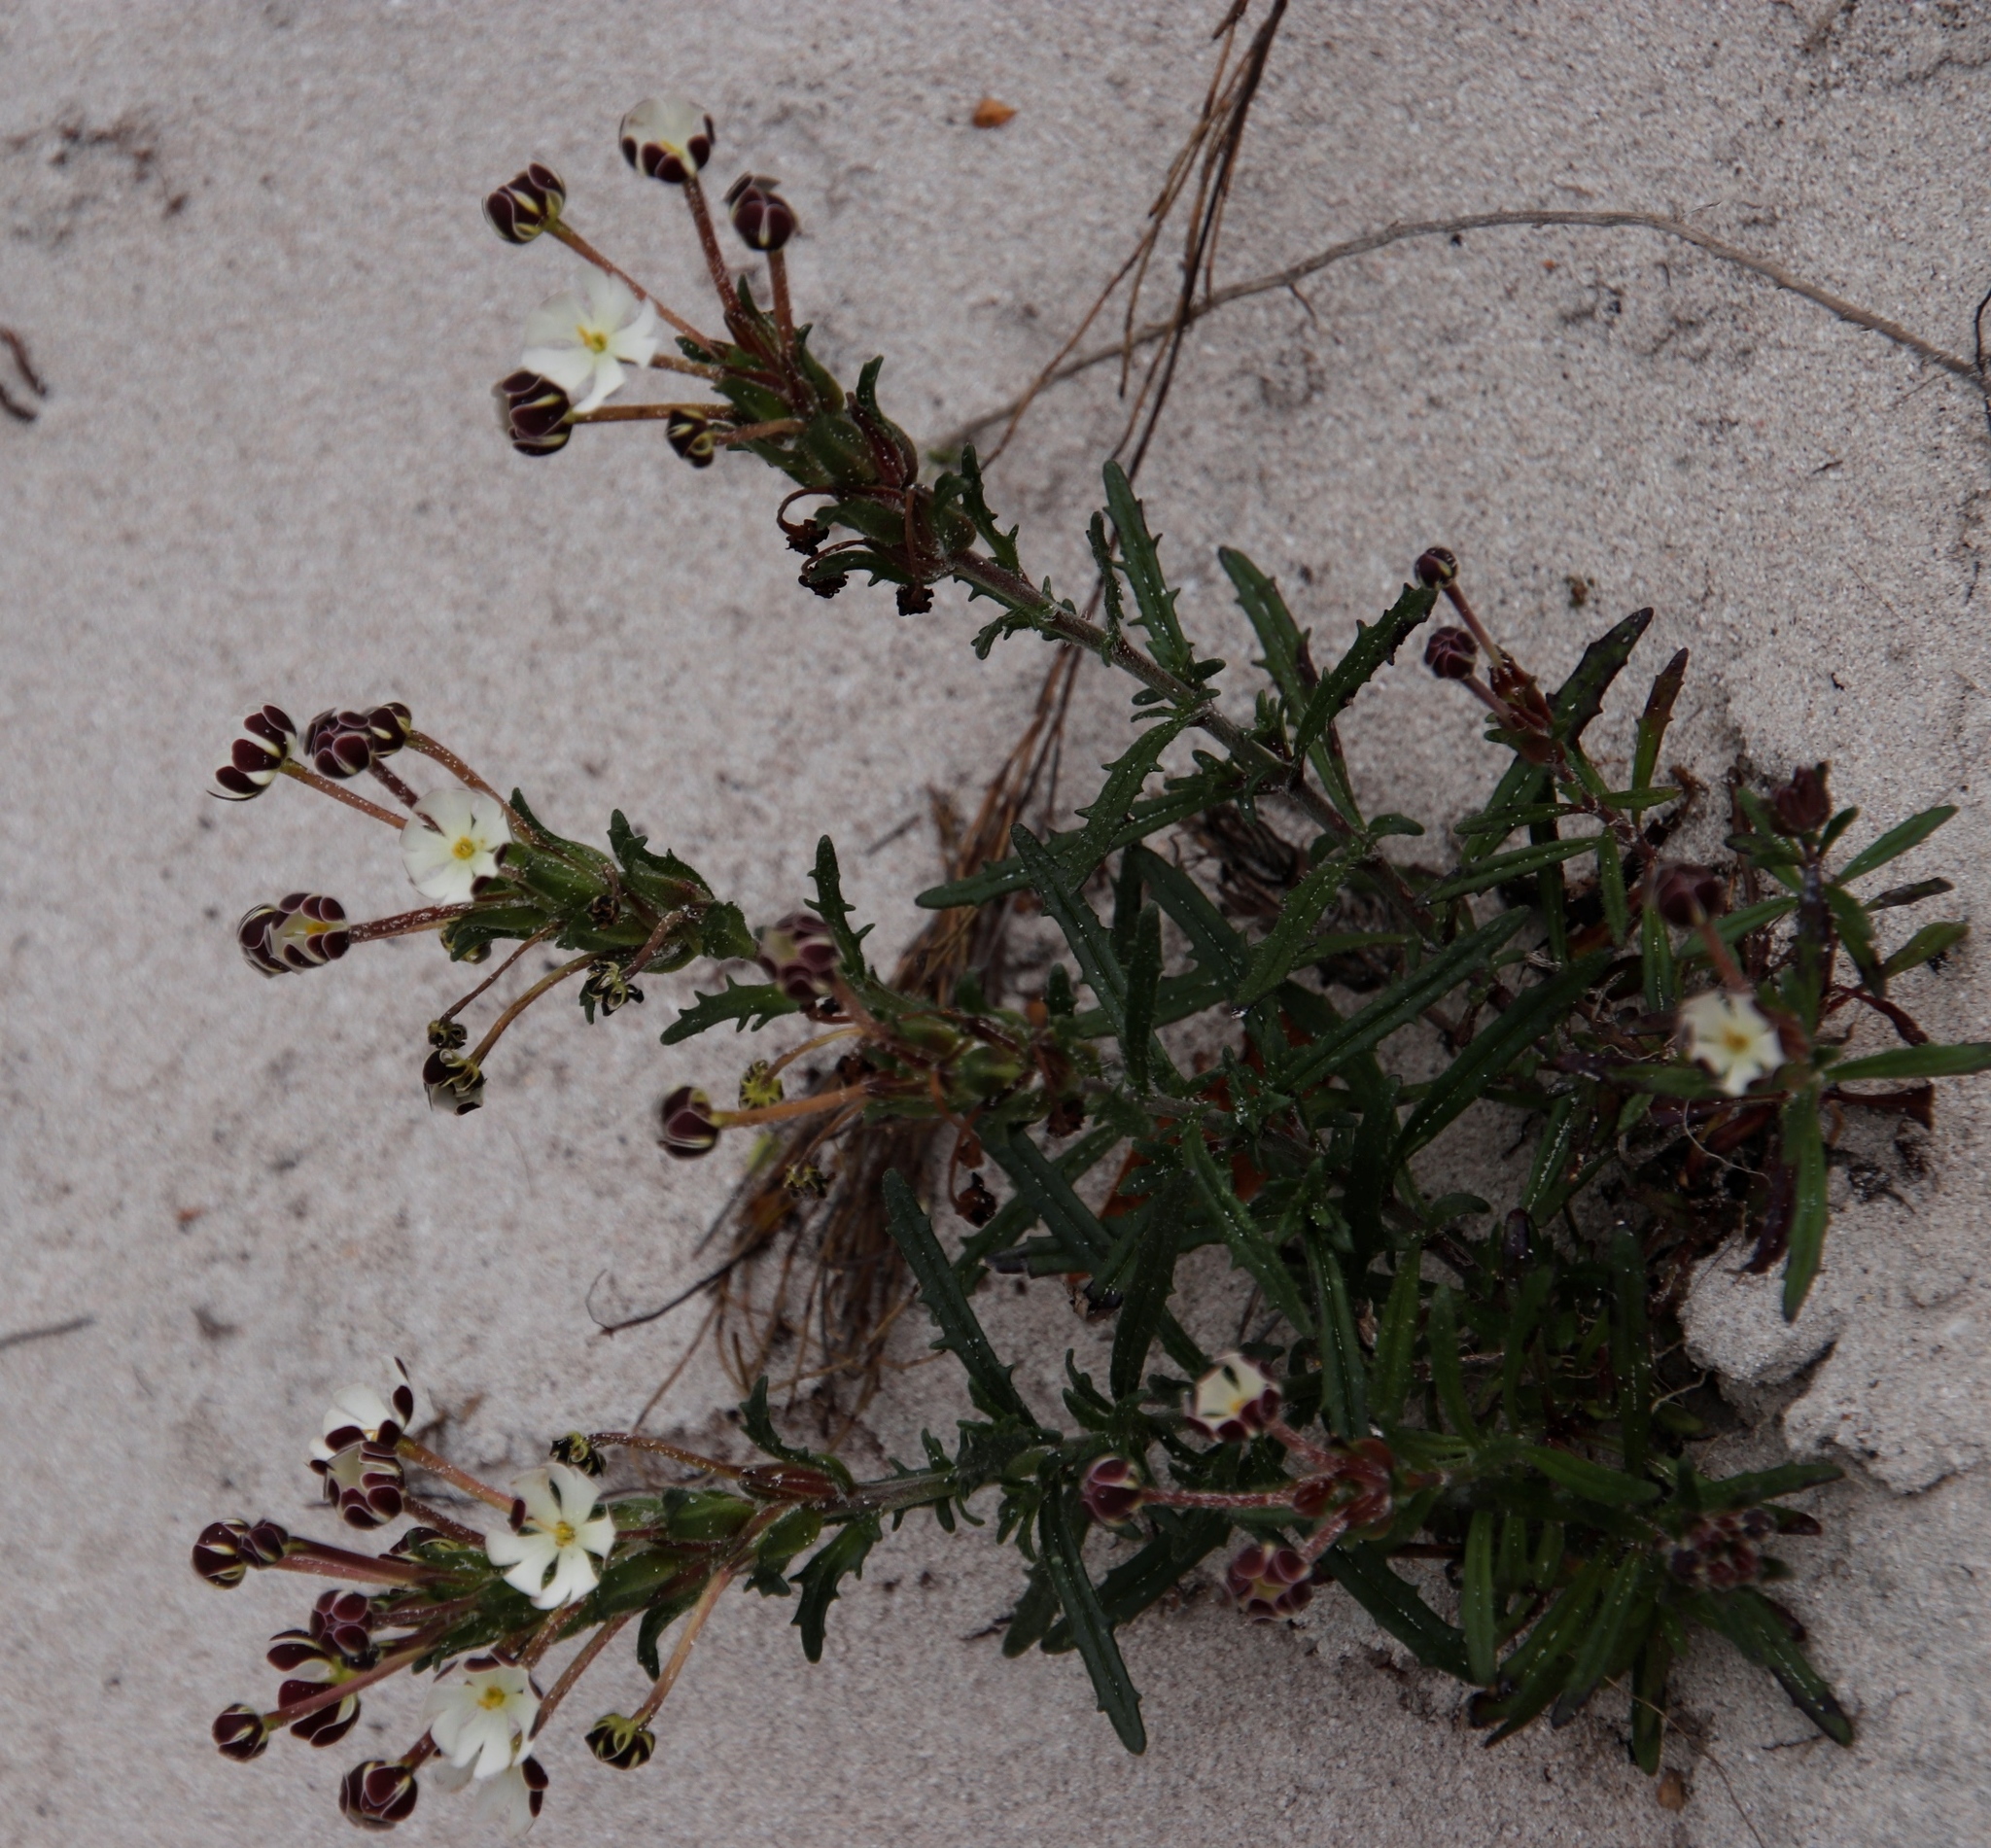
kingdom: Plantae
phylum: Tracheophyta
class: Magnoliopsida
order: Lamiales
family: Scrophulariaceae
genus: Zaluzianskya
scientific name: Zaluzianskya capensis
